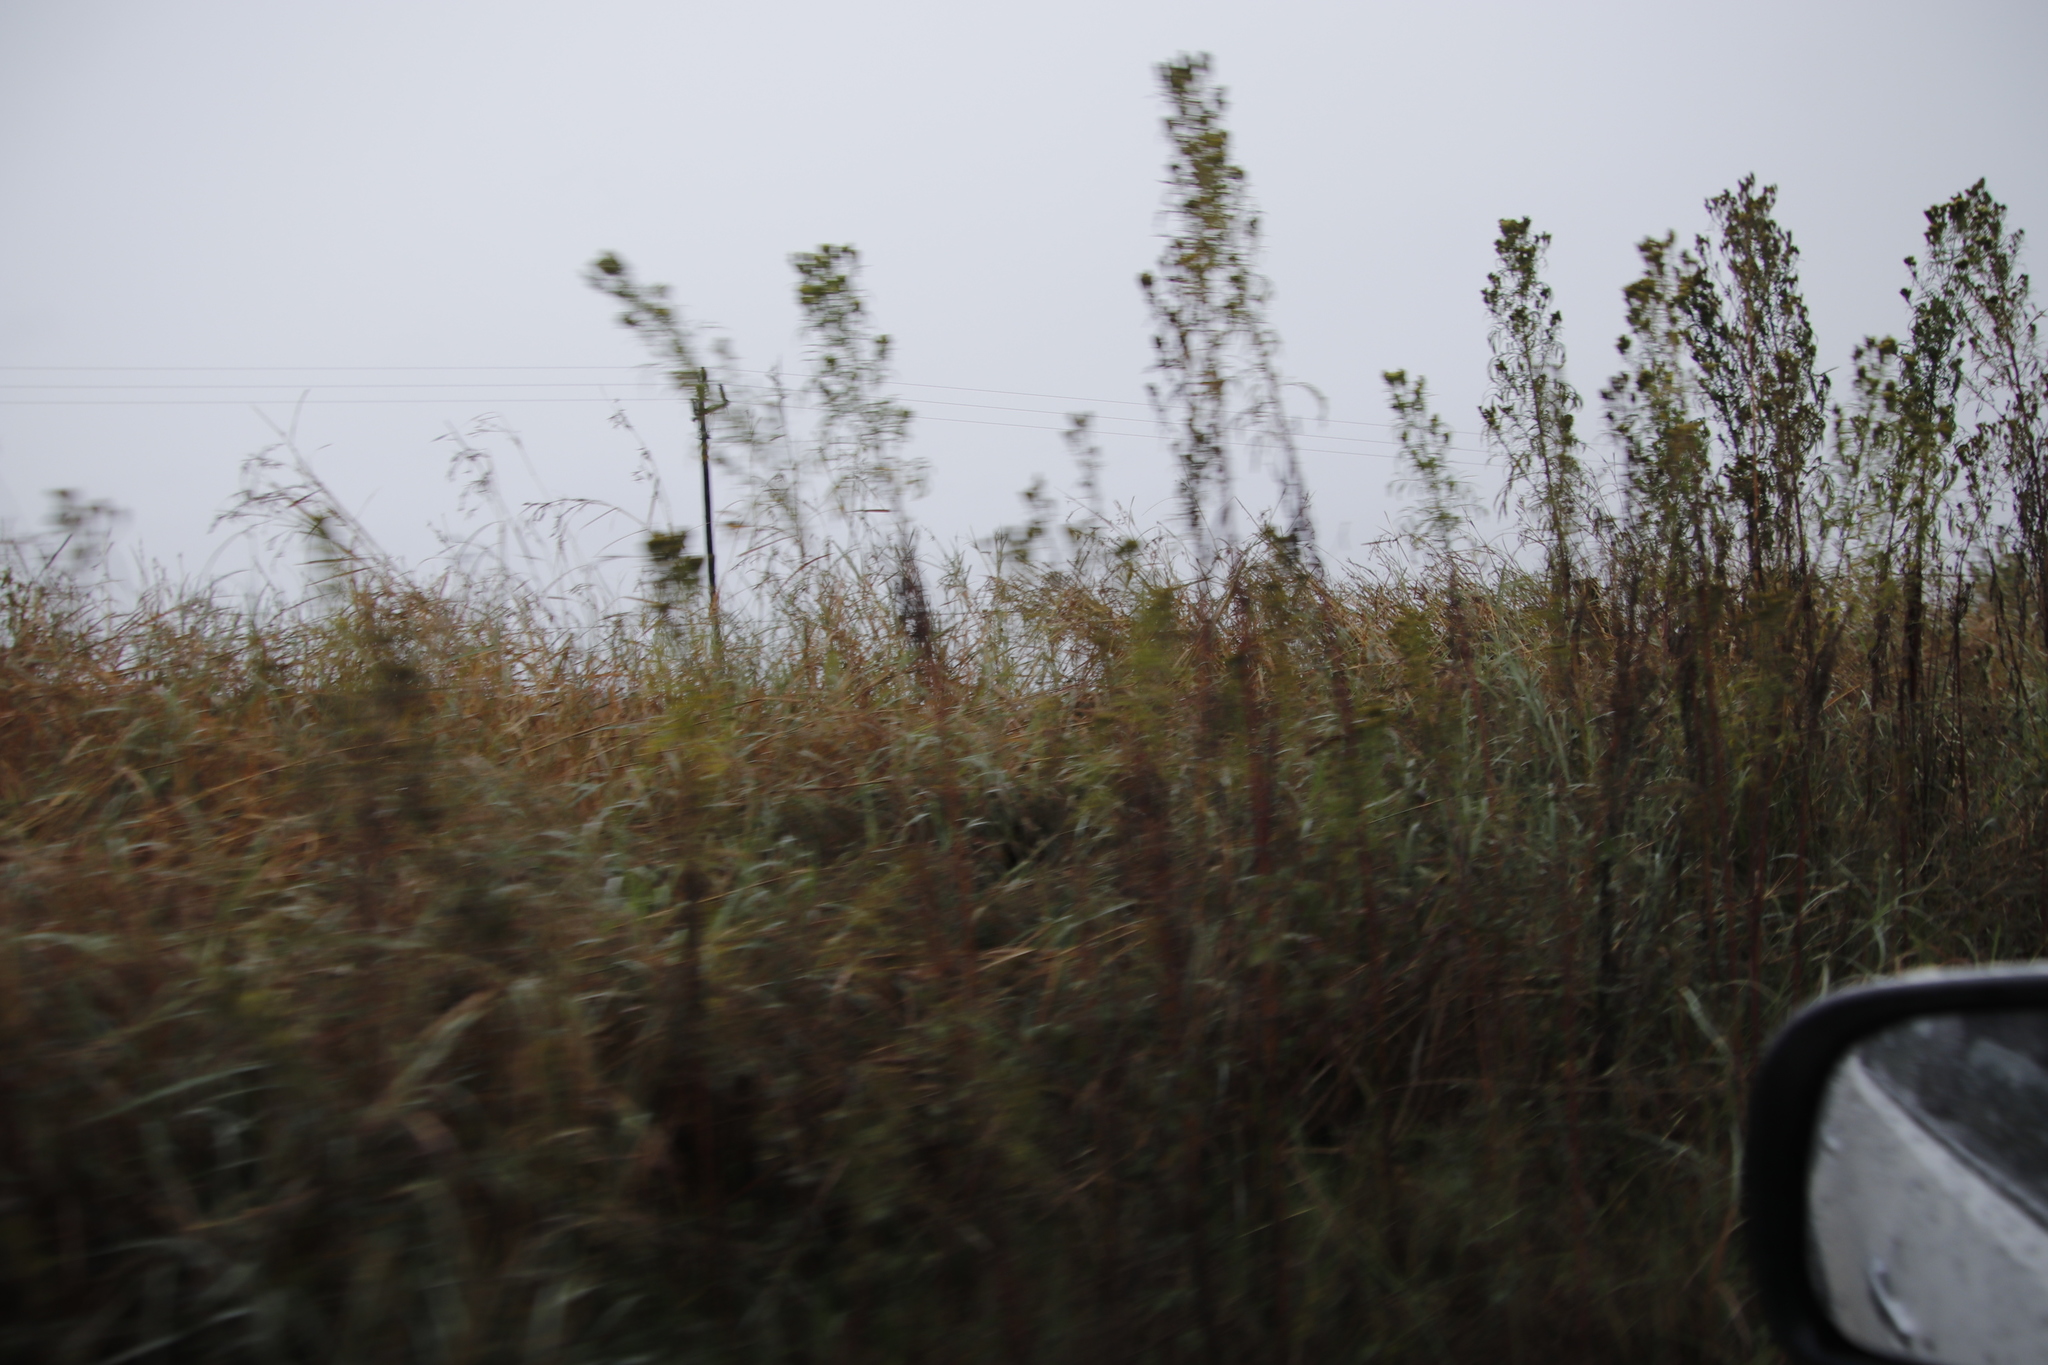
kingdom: Plantae
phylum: Tracheophyta
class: Magnoliopsida
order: Asterales
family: Asteraceae
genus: Tagetes
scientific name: Tagetes minuta
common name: Muster john henry
